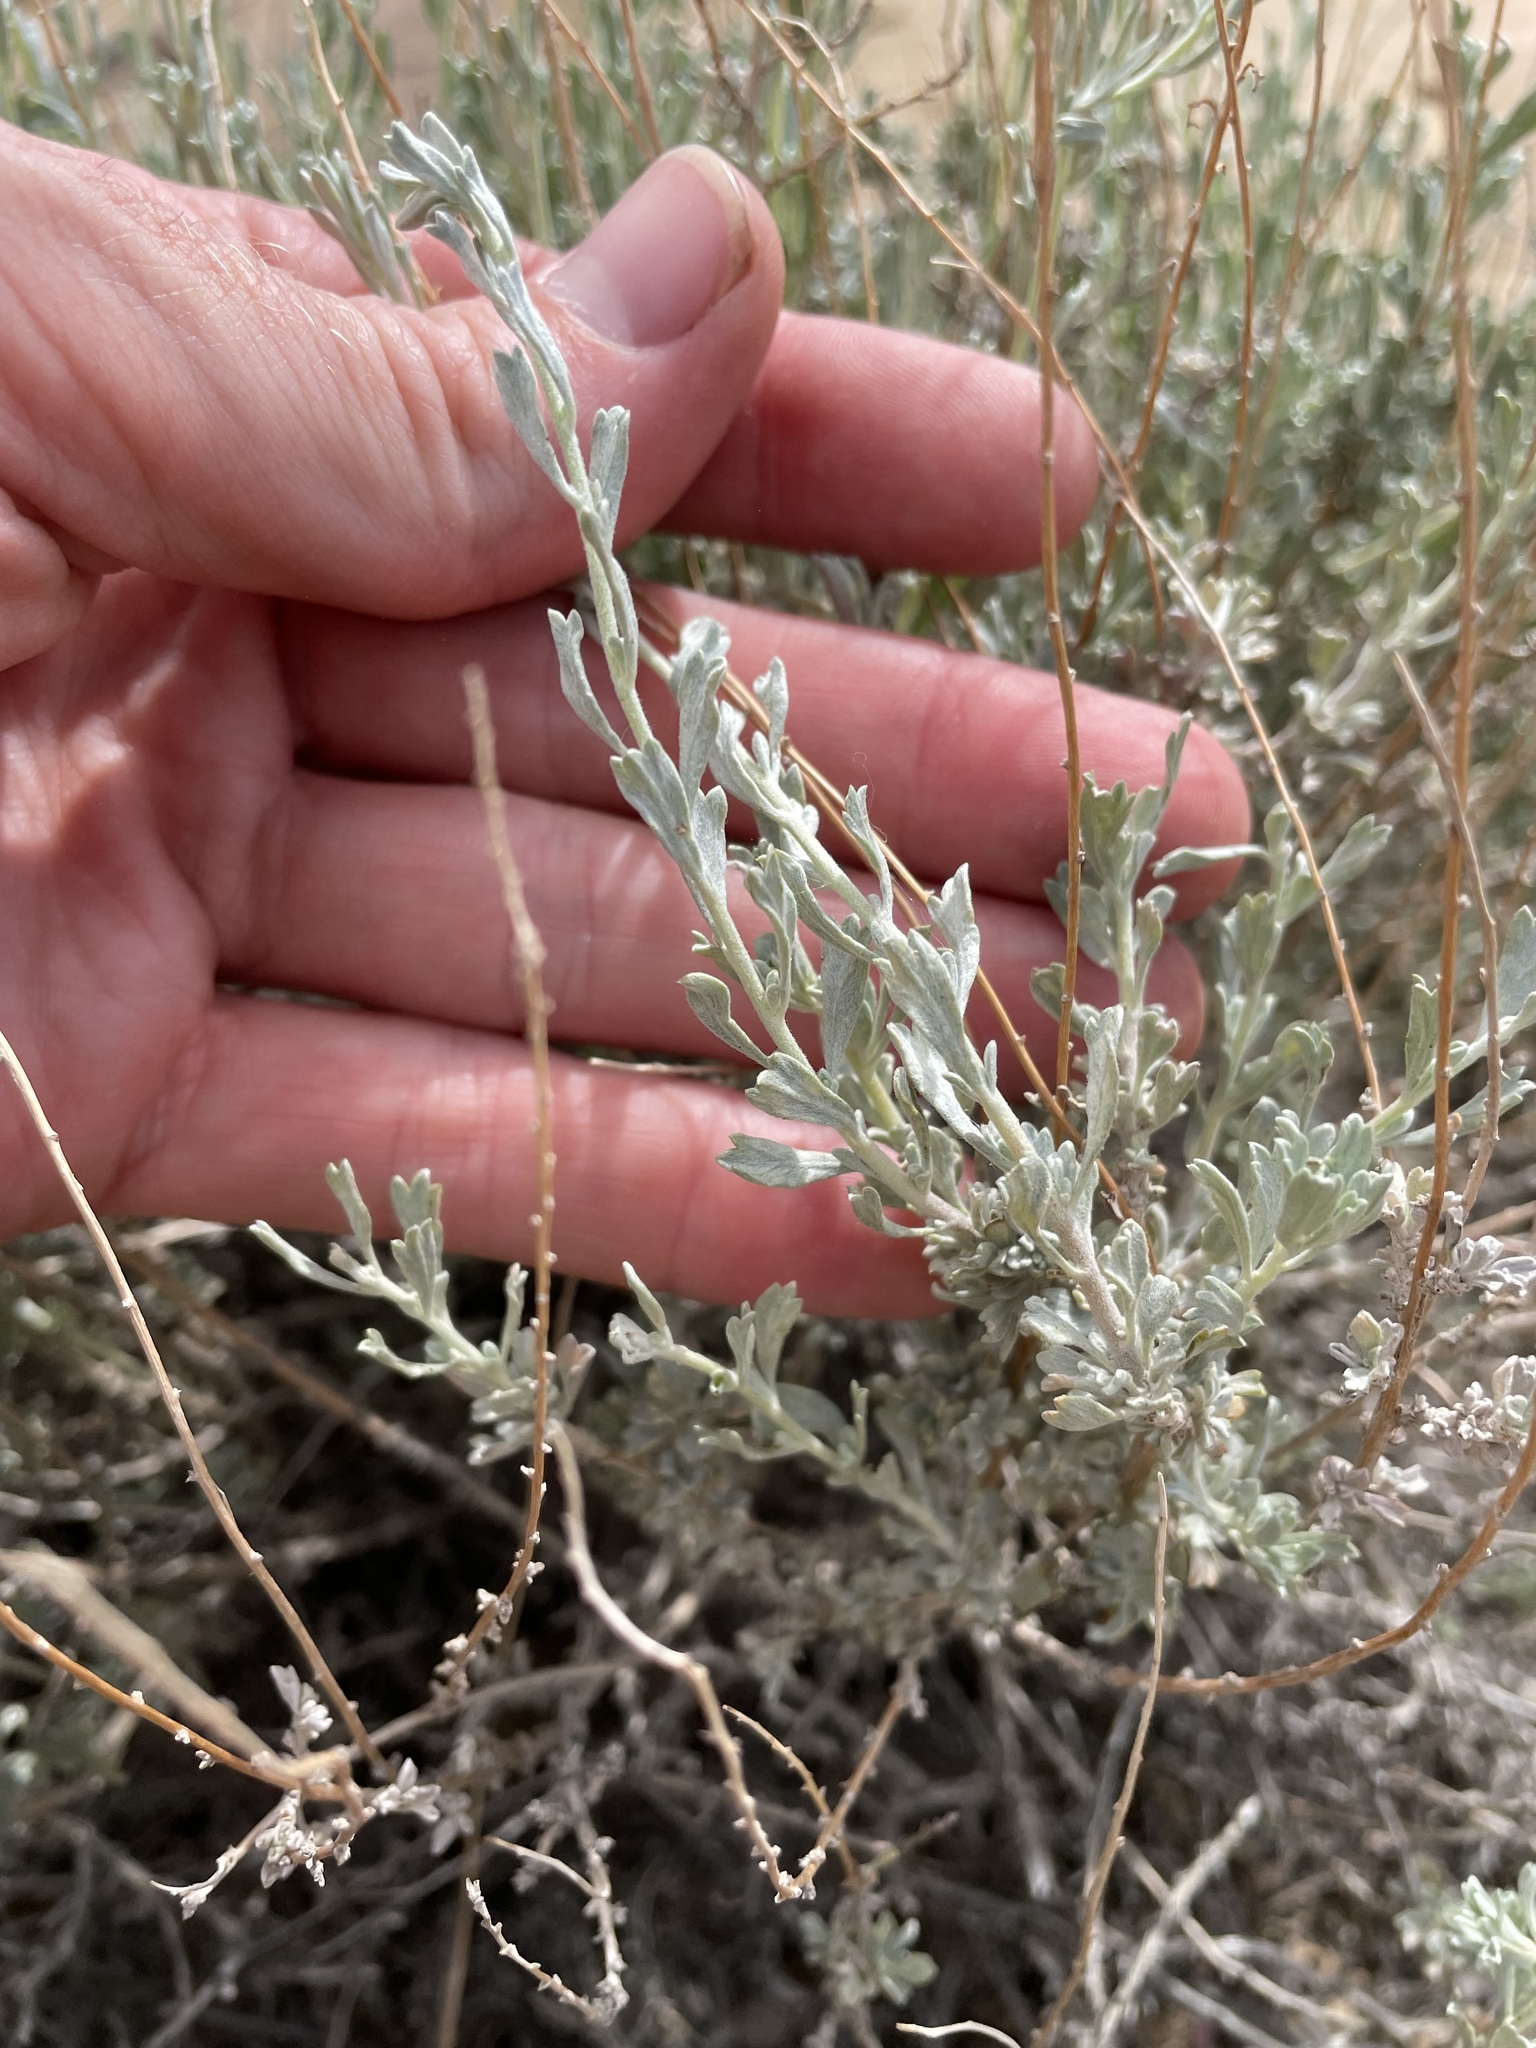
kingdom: Plantae
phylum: Tracheophyta
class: Magnoliopsida
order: Asterales
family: Asteraceae
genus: Artemisia
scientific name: Artemisia bigelovii
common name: Bigelow sagebrush
